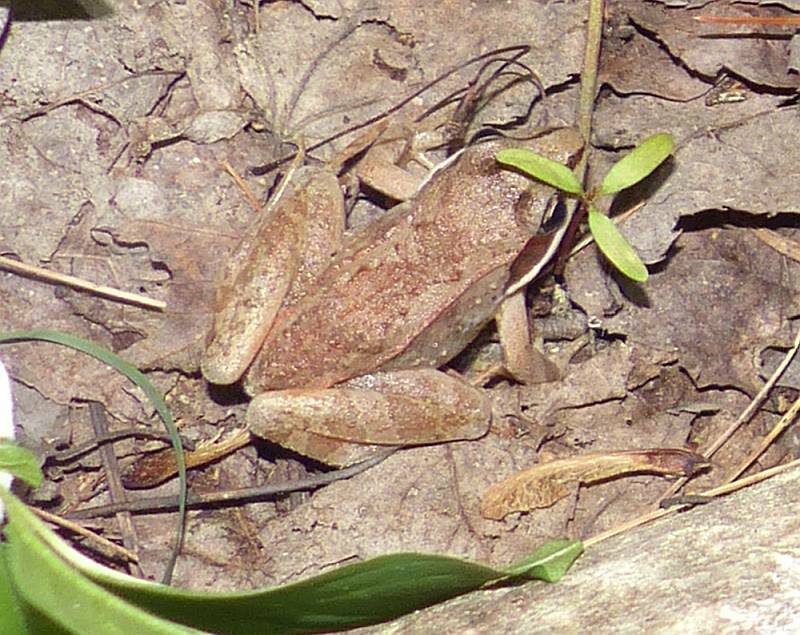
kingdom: Animalia
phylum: Chordata
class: Amphibia
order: Anura
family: Ranidae
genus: Lithobates
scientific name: Lithobates sylvaticus
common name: Wood frog
